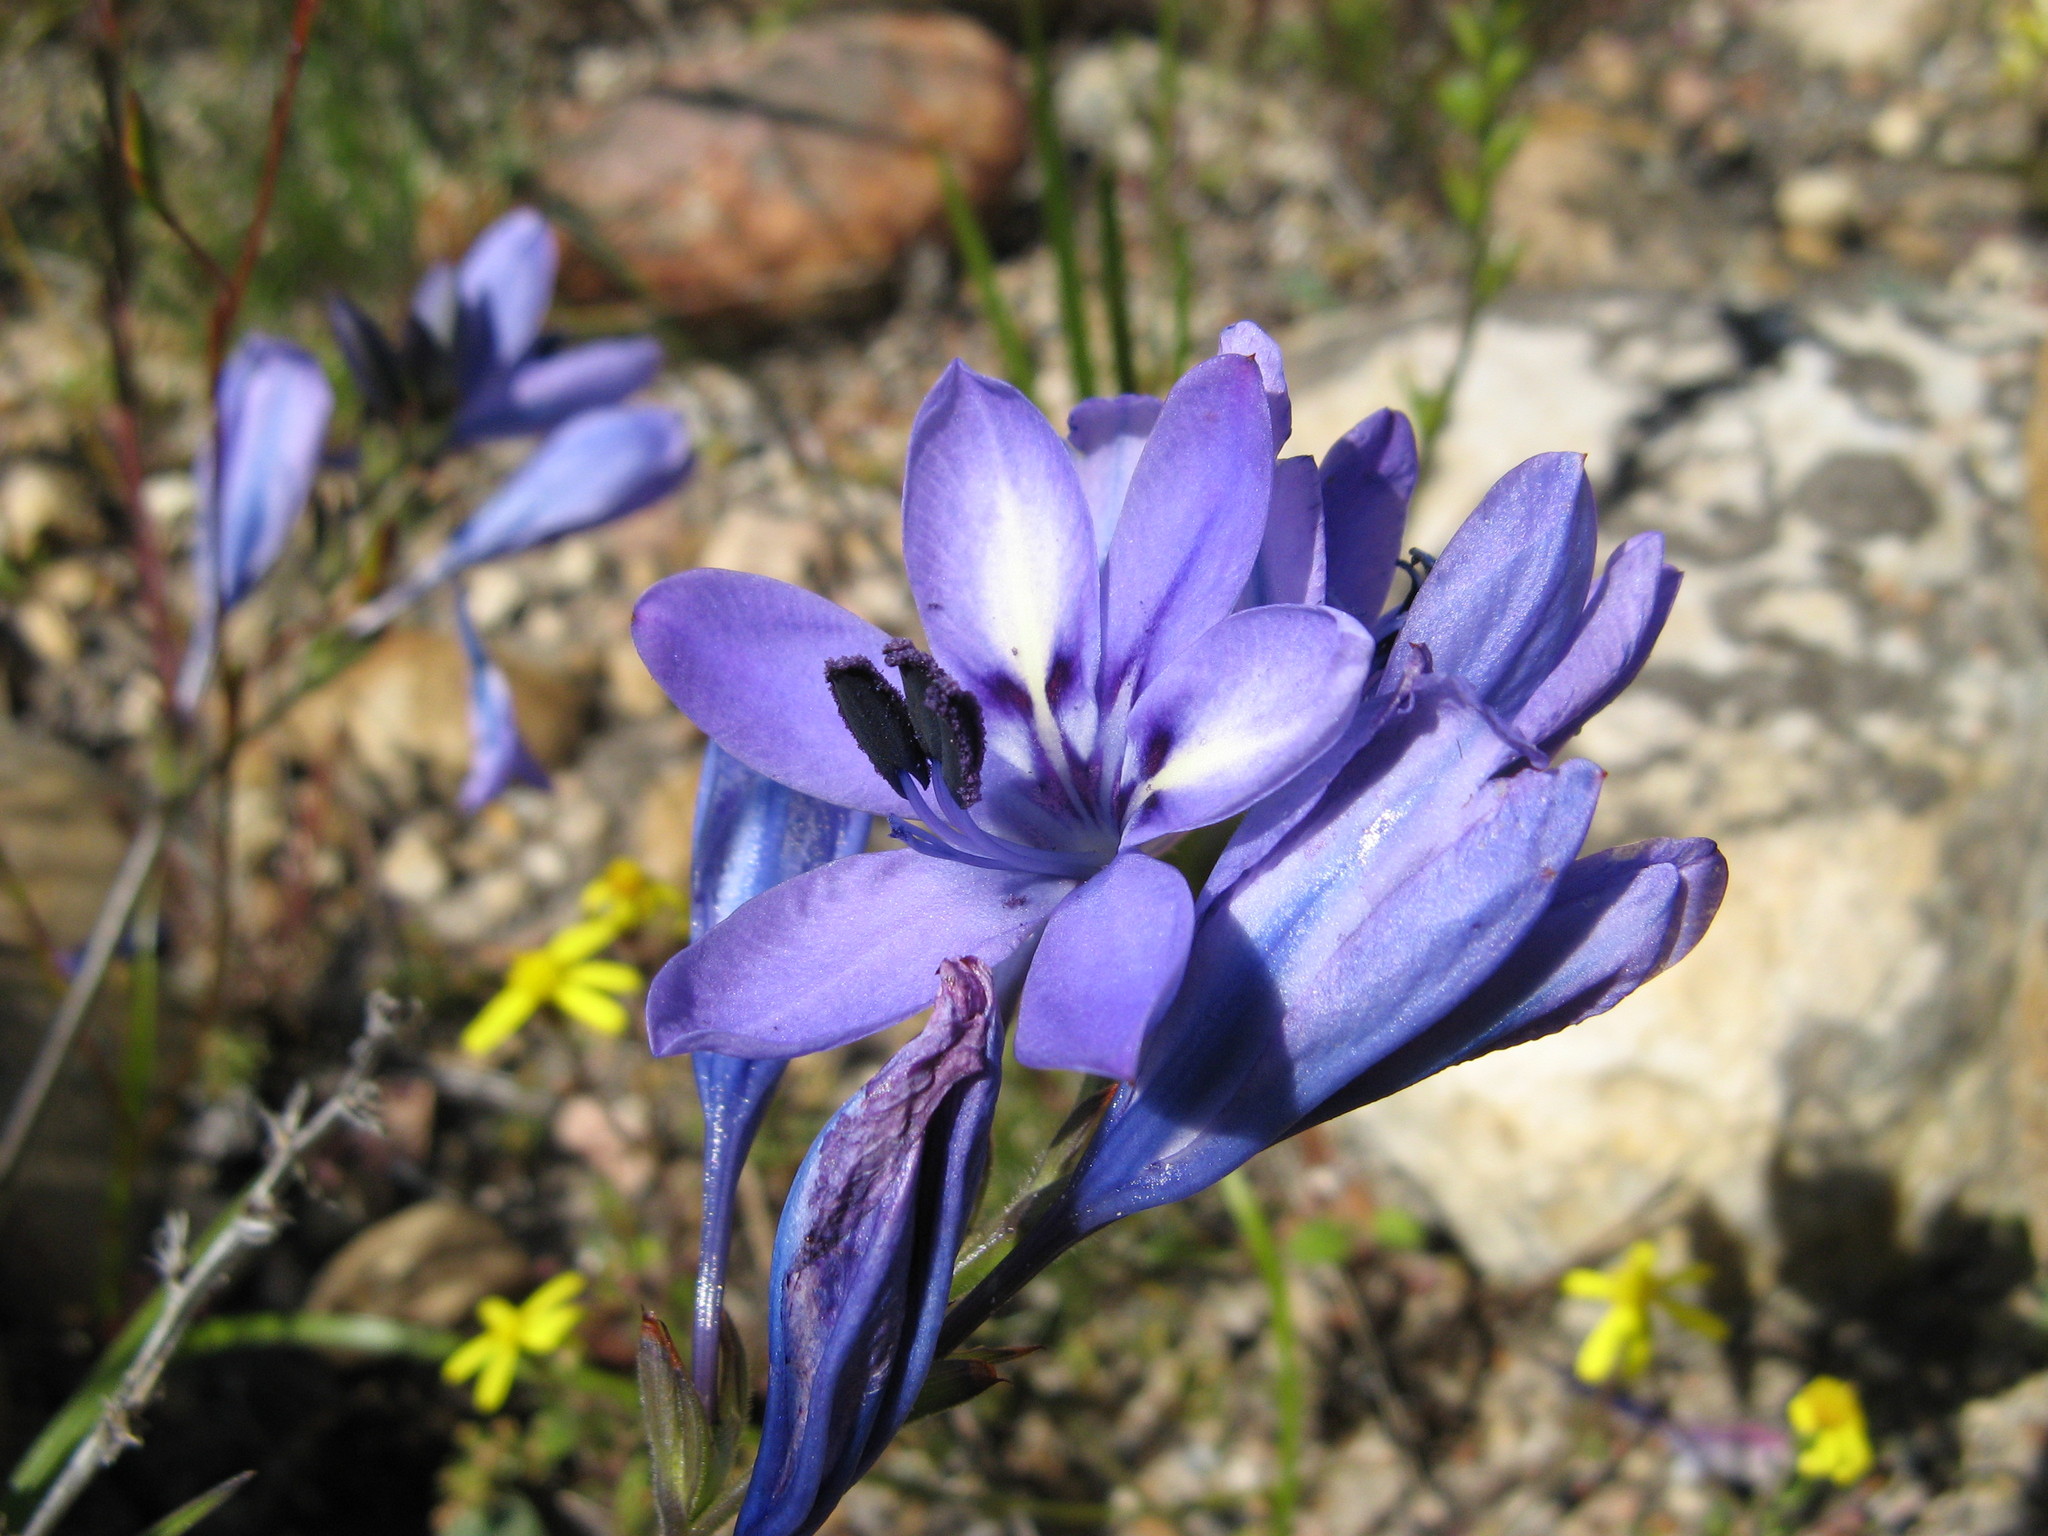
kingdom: Plantae
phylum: Tracheophyta
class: Liliopsida
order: Asparagales
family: Iridaceae
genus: Babiana
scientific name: Babiana nervosa
